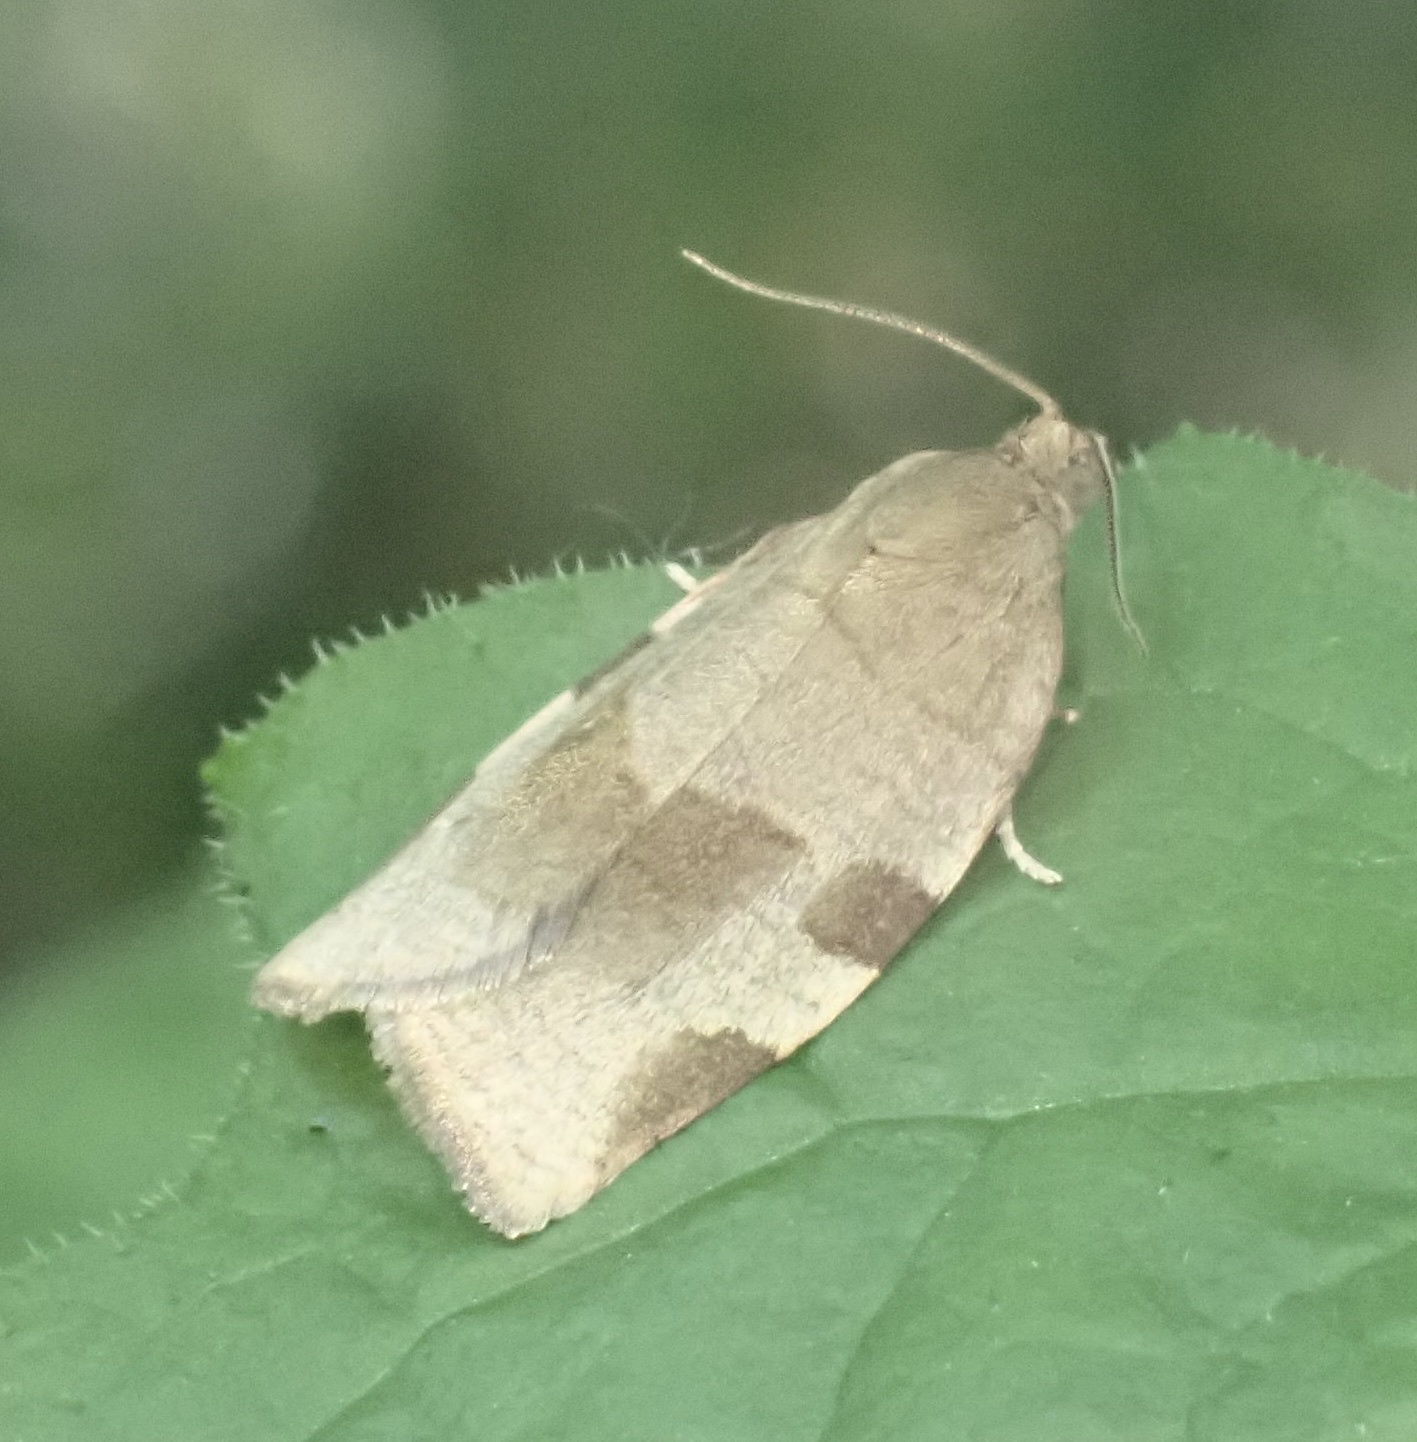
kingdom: Animalia
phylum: Arthropoda
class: Insecta
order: Lepidoptera
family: Tortricidae
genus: Choristoneura
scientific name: Choristoneura hebenstreitella
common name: Great twist
